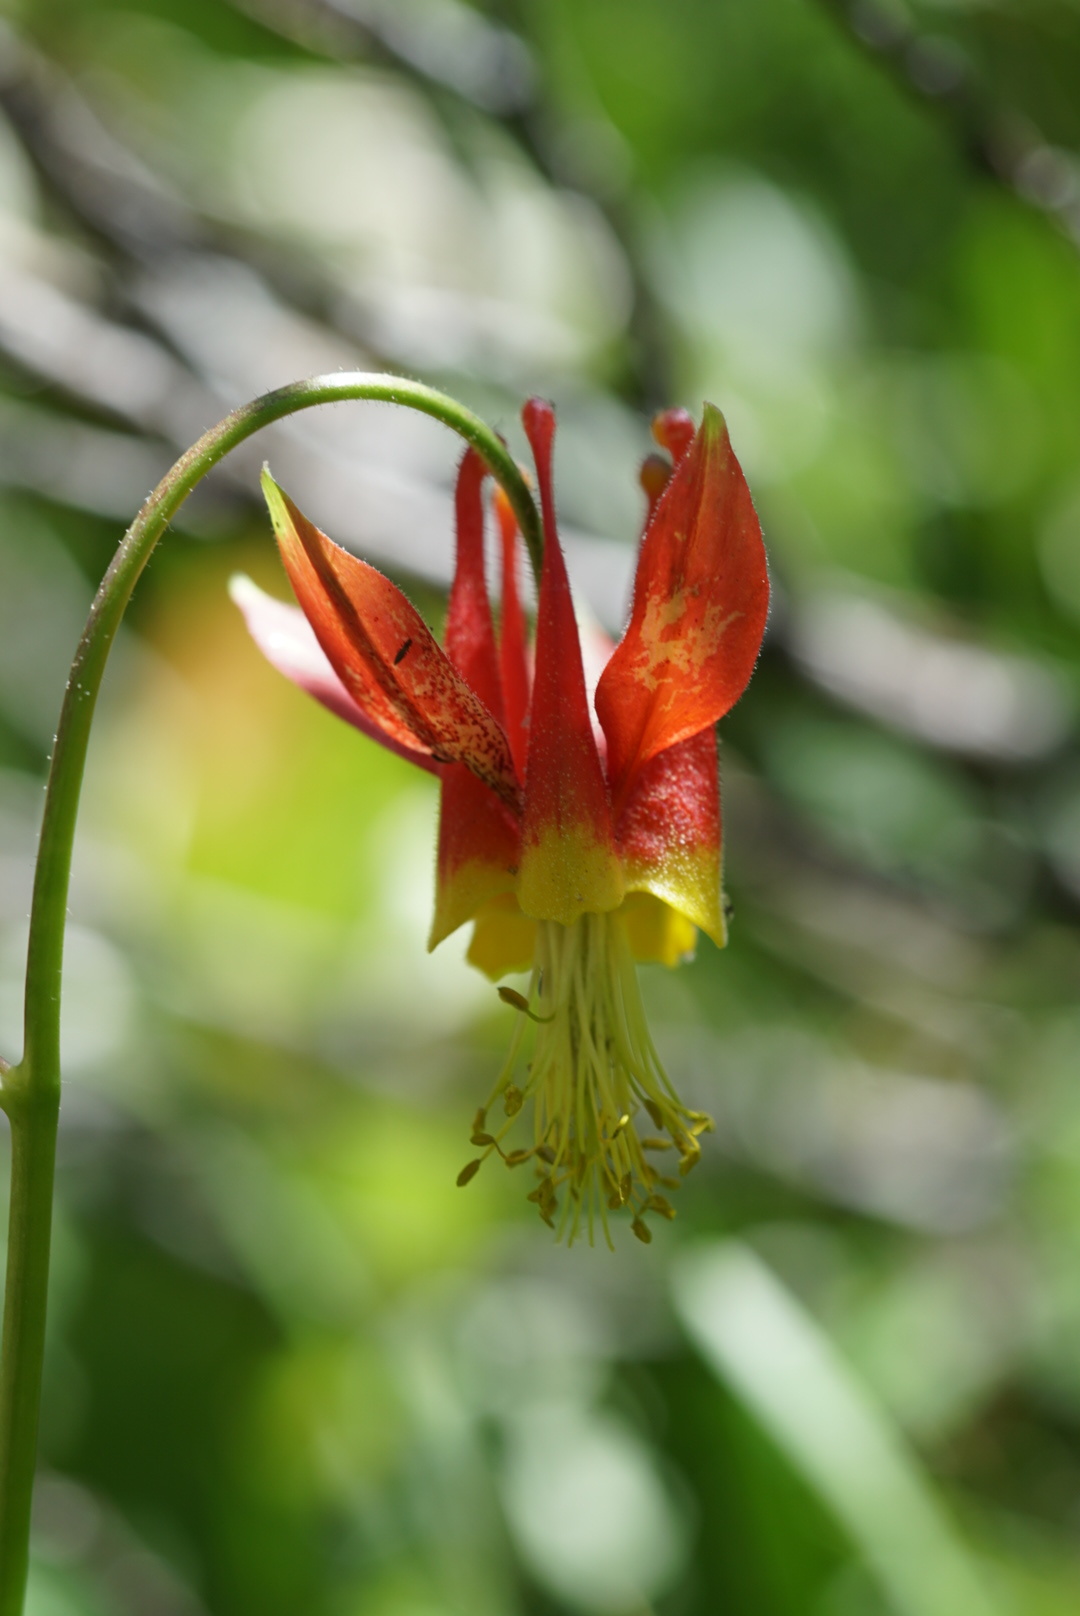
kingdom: Plantae
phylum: Tracheophyta
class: Magnoliopsida
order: Ranunculales
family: Ranunculaceae
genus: Aquilegia
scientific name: Aquilegia formosa
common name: Sitka columbine
